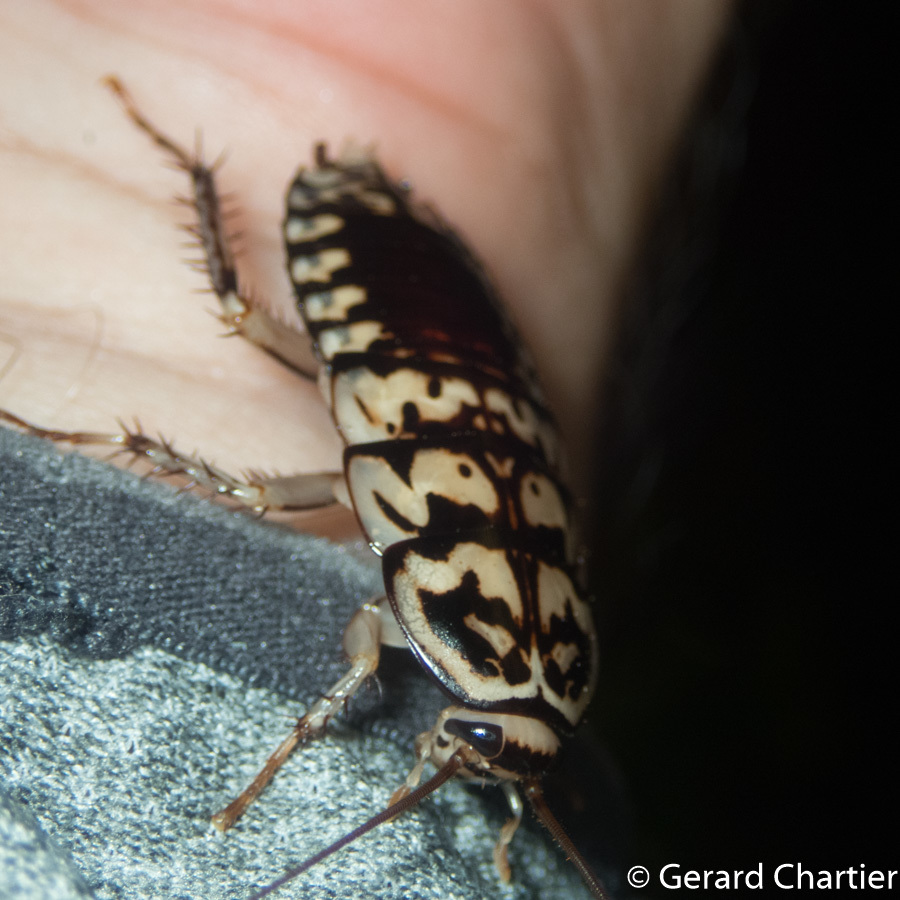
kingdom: Animalia
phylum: Arthropoda
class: Insecta
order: Blattodea
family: Blattidae
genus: Neostylopyga
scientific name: Neostylopyga rhombifolia
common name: Harlequin cockroach
